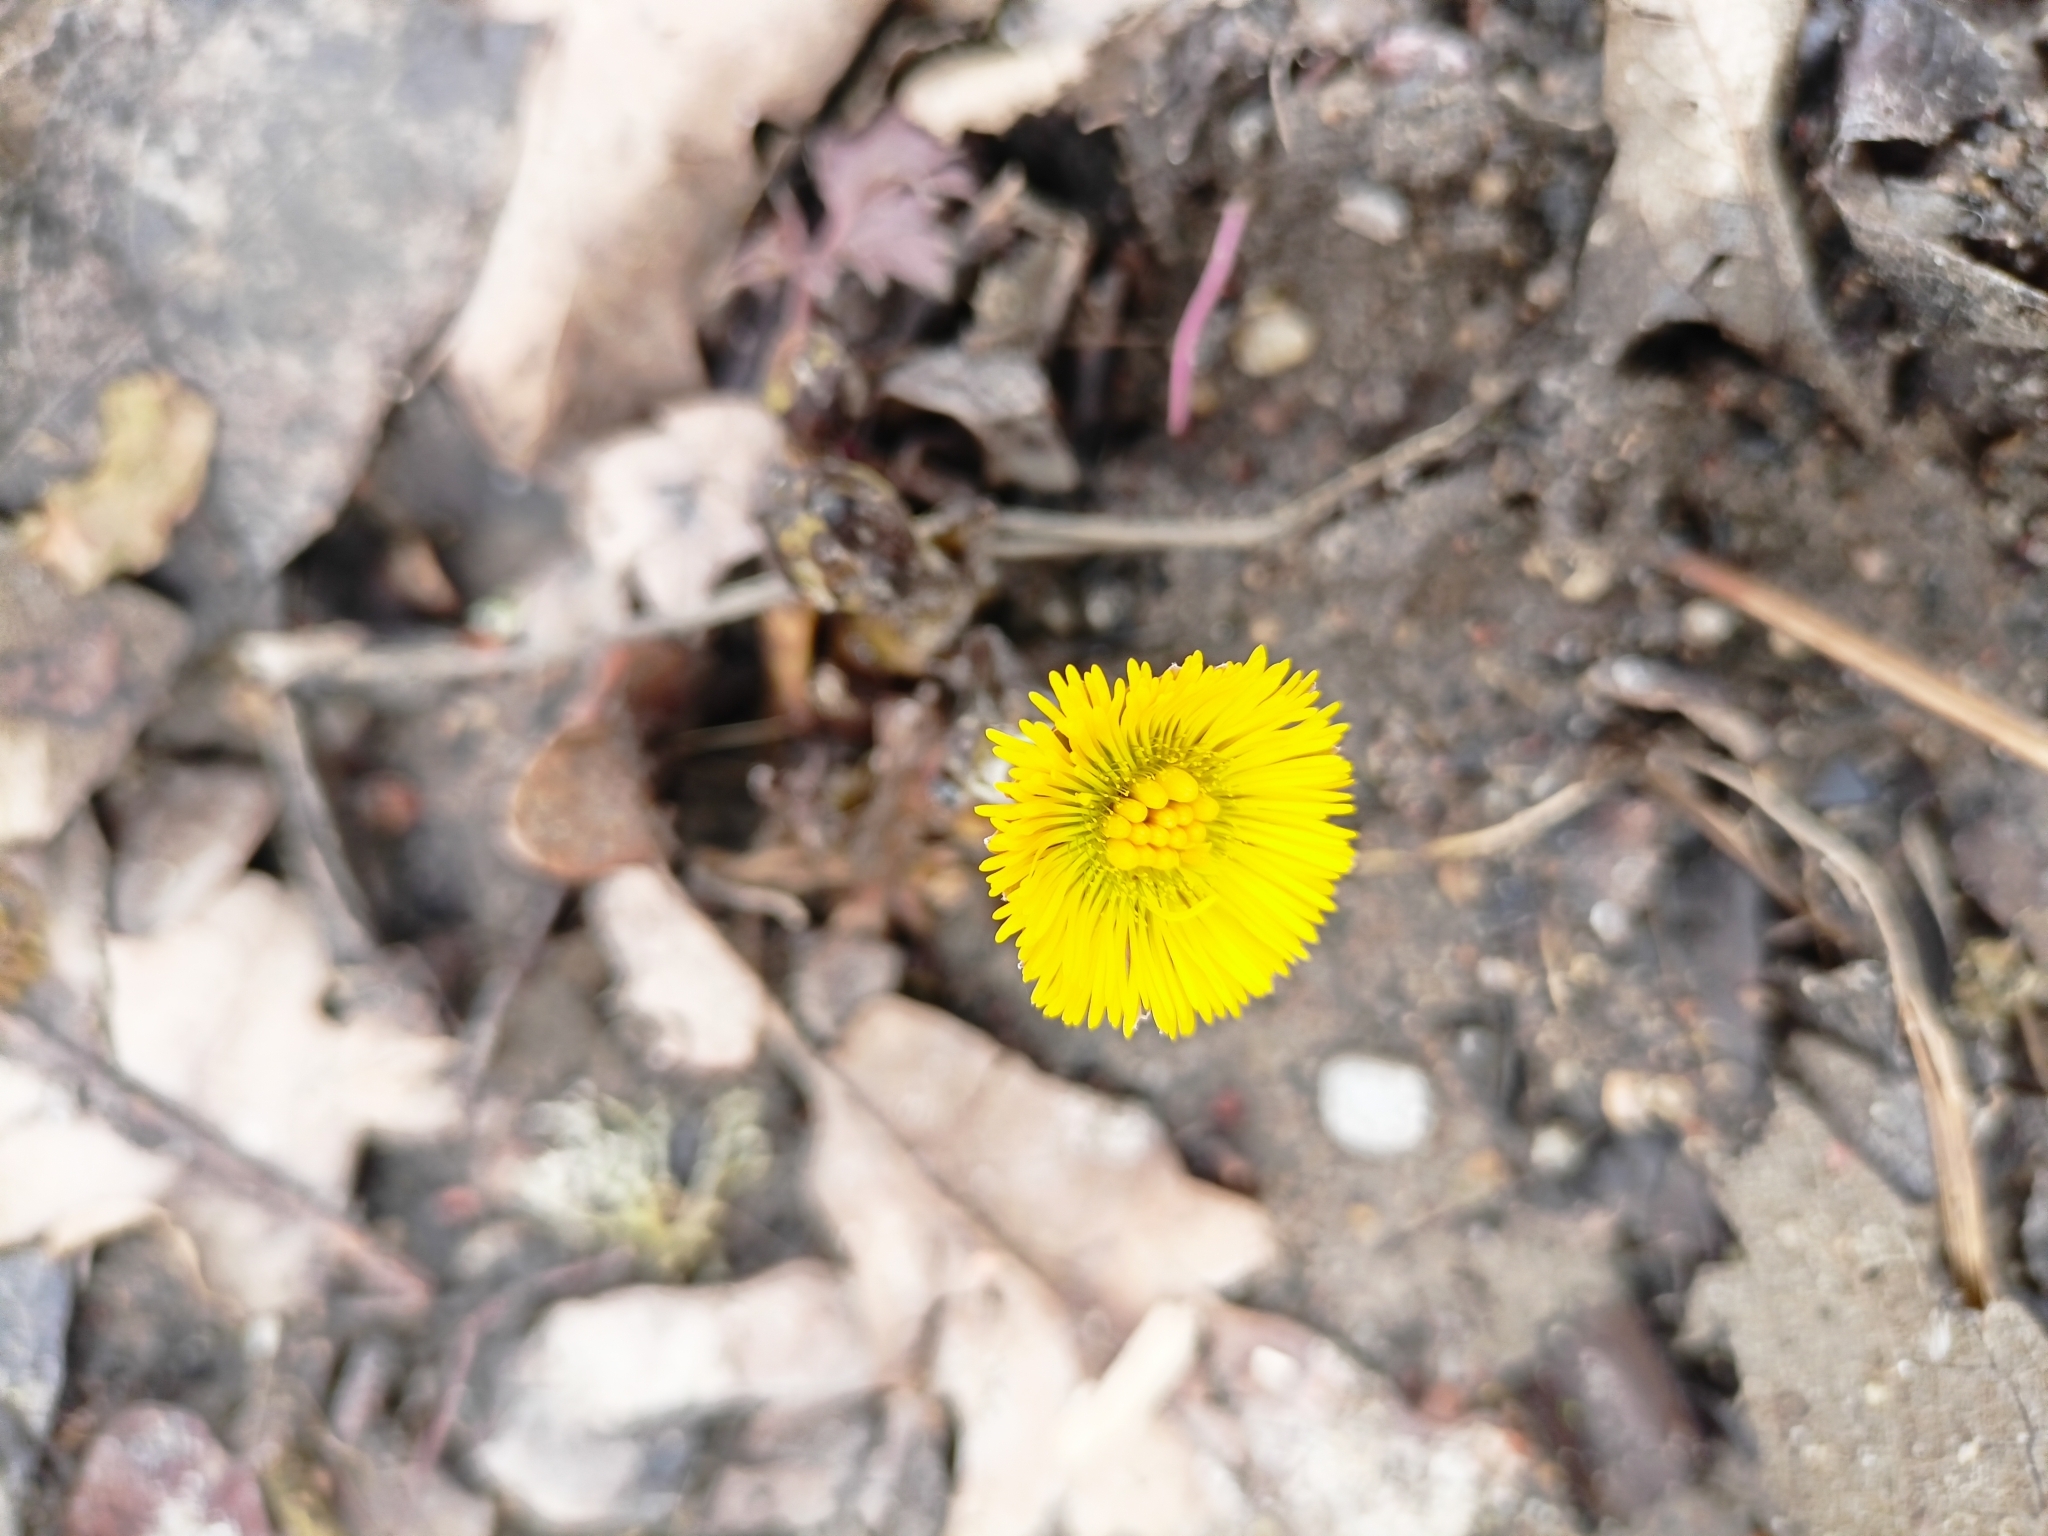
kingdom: Plantae
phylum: Tracheophyta
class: Magnoliopsida
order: Asterales
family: Asteraceae
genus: Tussilago
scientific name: Tussilago farfara
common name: Coltsfoot
